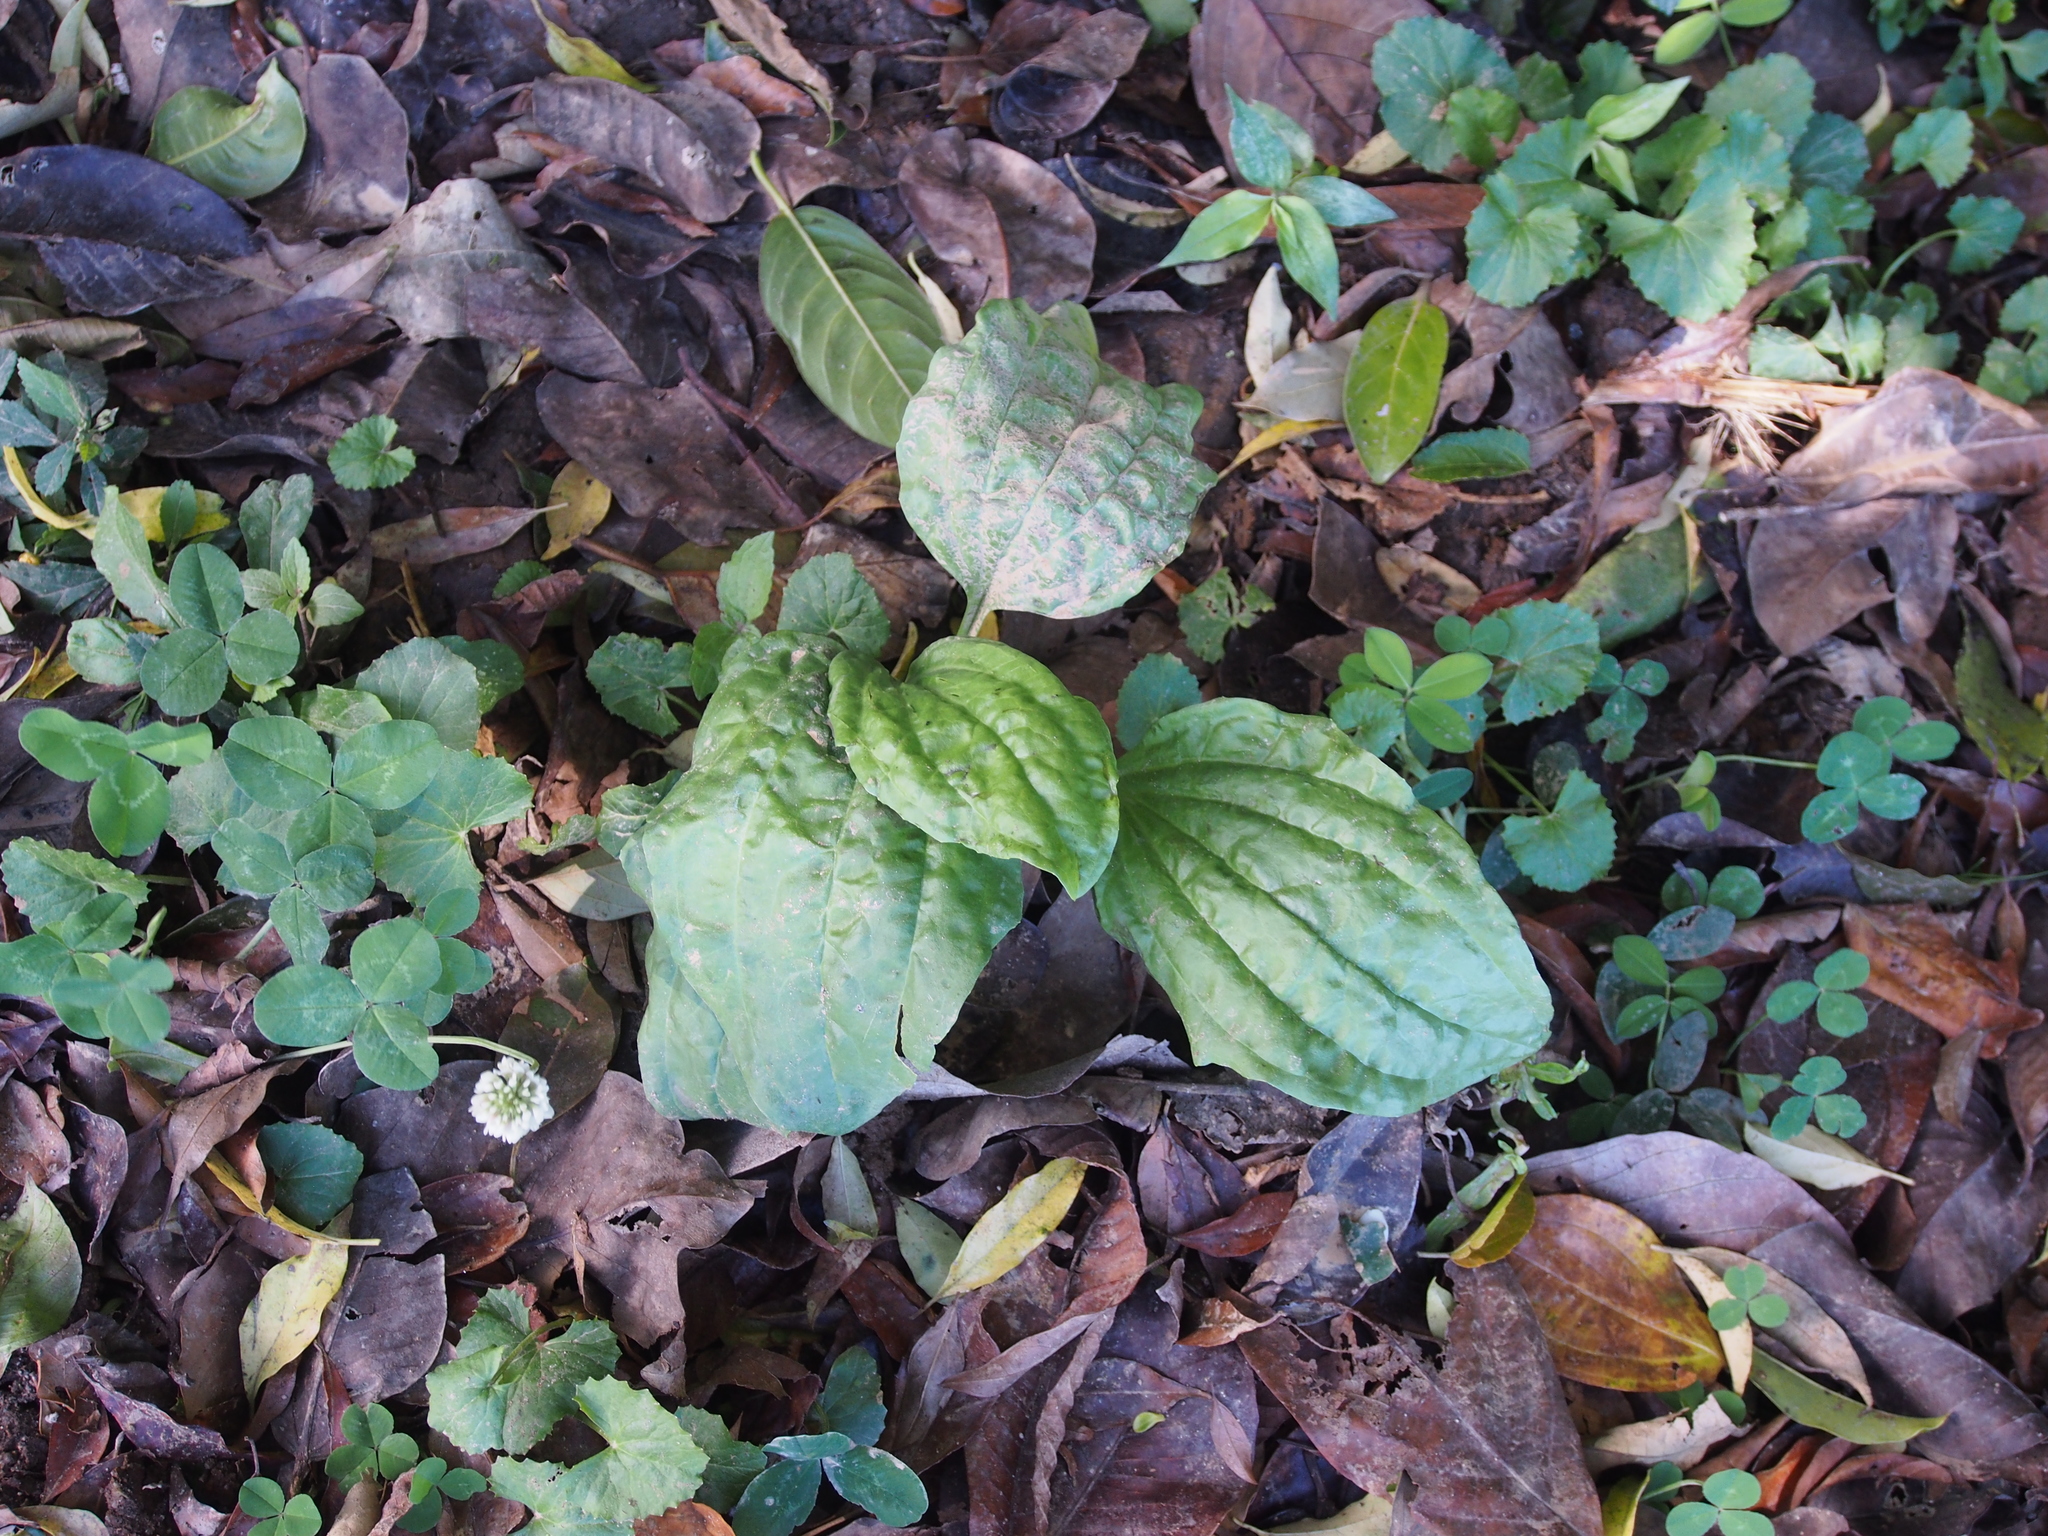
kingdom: Plantae
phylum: Tracheophyta
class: Magnoliopsida
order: Lamiales
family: Plantaginaceae
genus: Plantago
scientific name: Plantago major
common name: Common plantain
